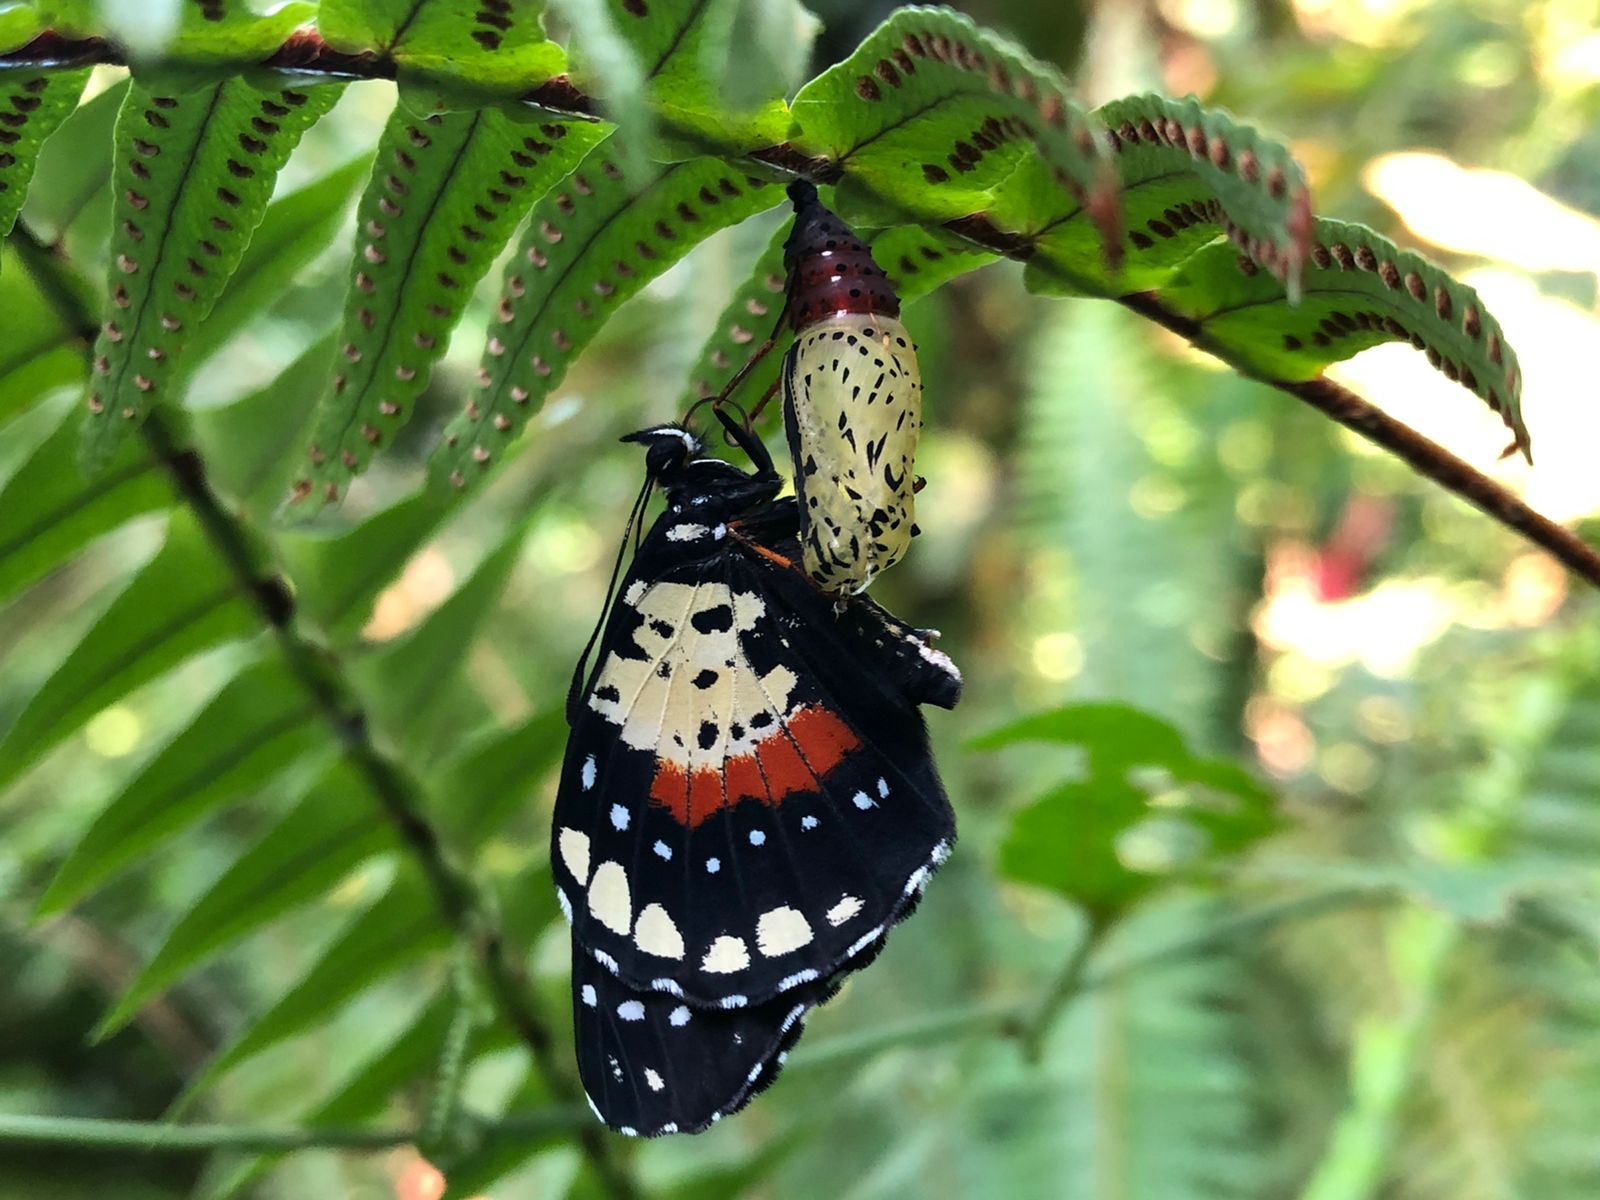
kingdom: Animalia
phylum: Arthropoda
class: Insecta
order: Lepidoptera
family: Nymphalidae
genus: Chlosyne
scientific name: Chlosyne janais
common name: Crimson patch
